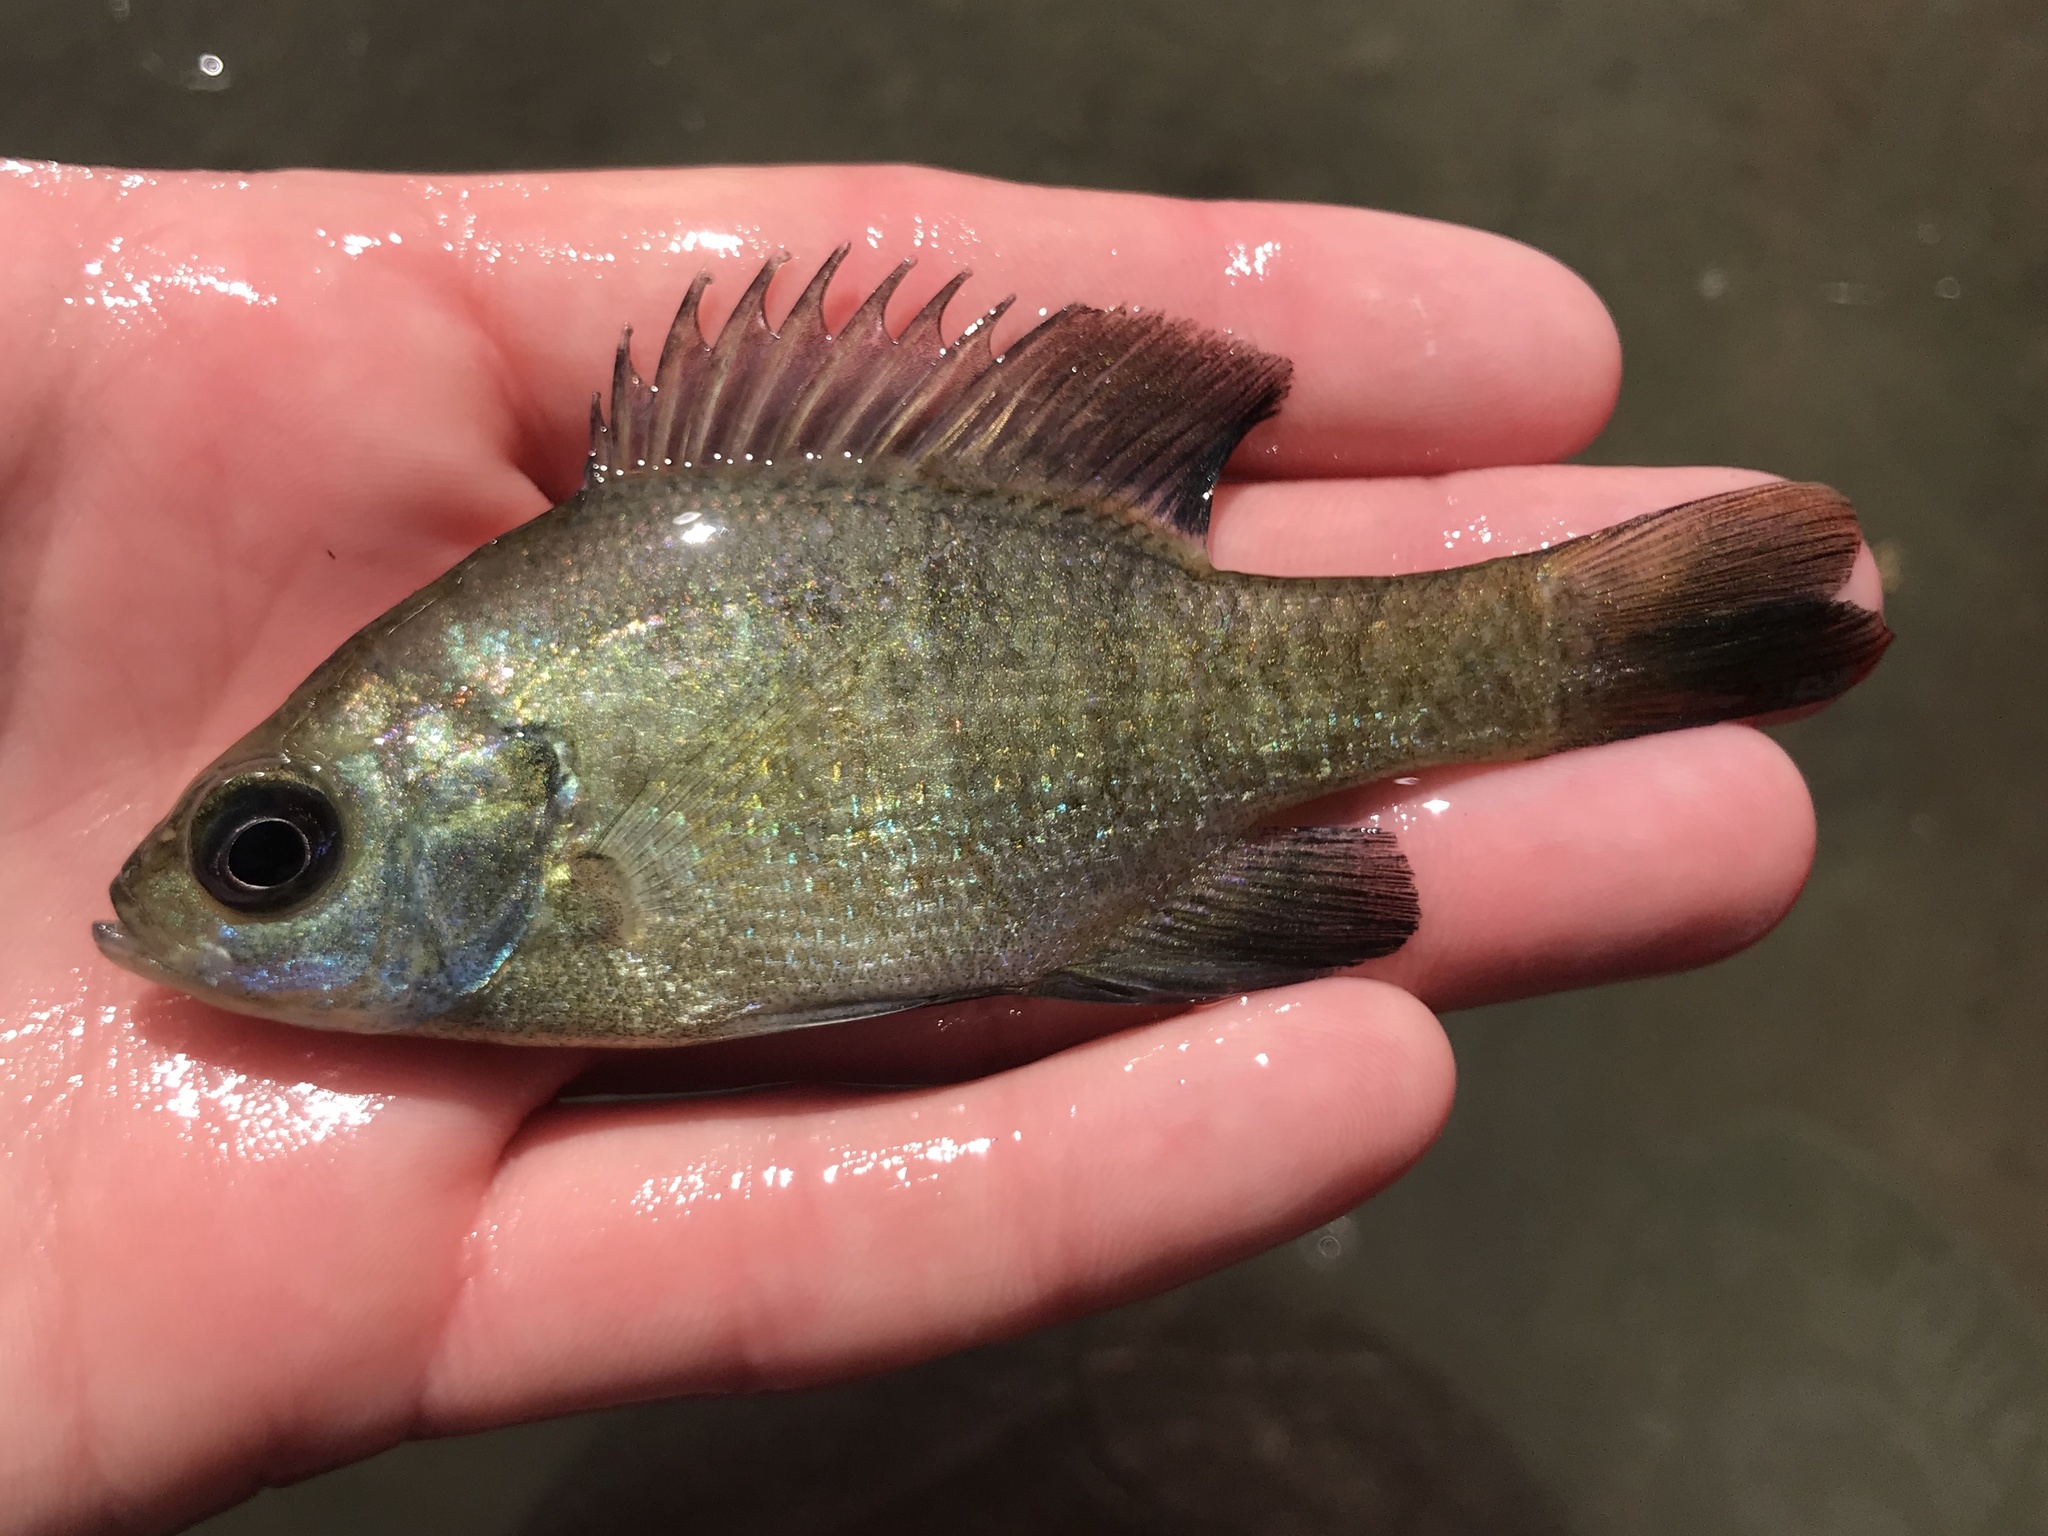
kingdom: Animalia
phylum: Chordata
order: Perciformes
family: Centrarchidae
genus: Lepomis
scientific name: Lepomis macrochirus
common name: Bluegill
